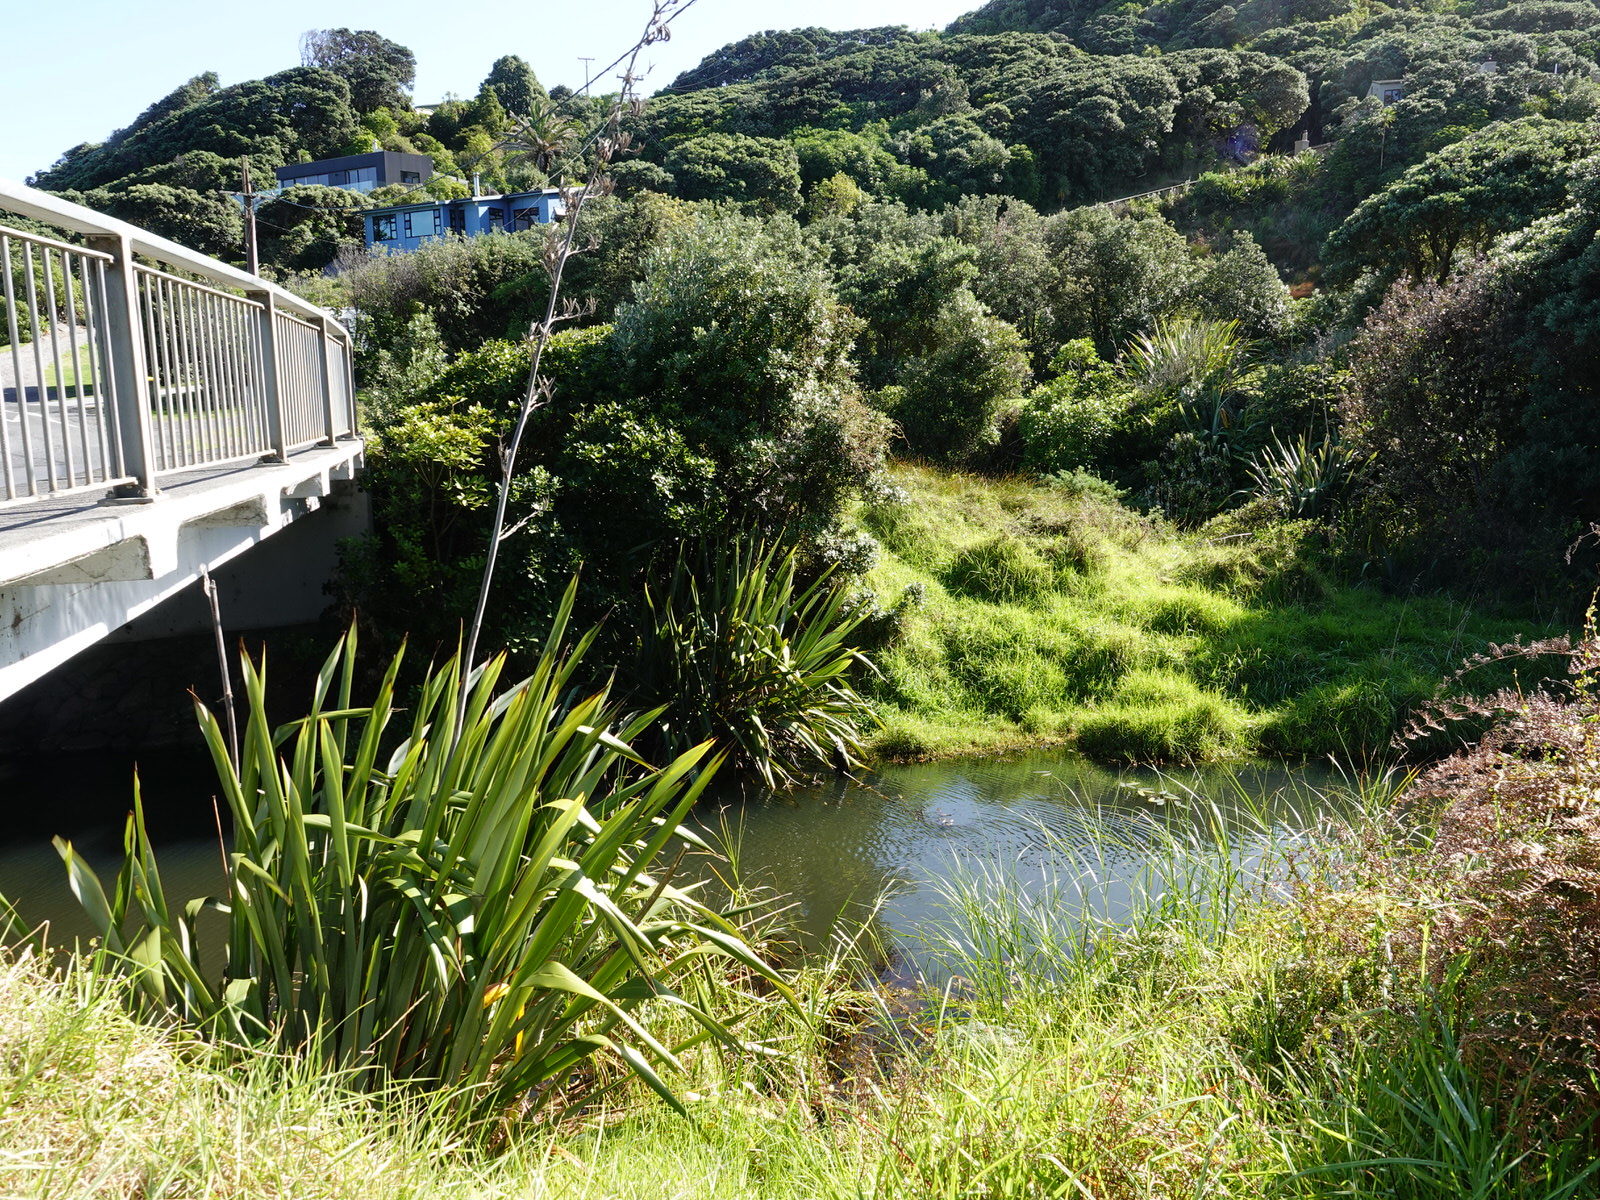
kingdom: Animalia
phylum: Chordata
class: Aves
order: Suliformes
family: Phalacrocoracidae
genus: Microcarbo
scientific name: Microcarbo melanoleucos
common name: Little pied cormorant
